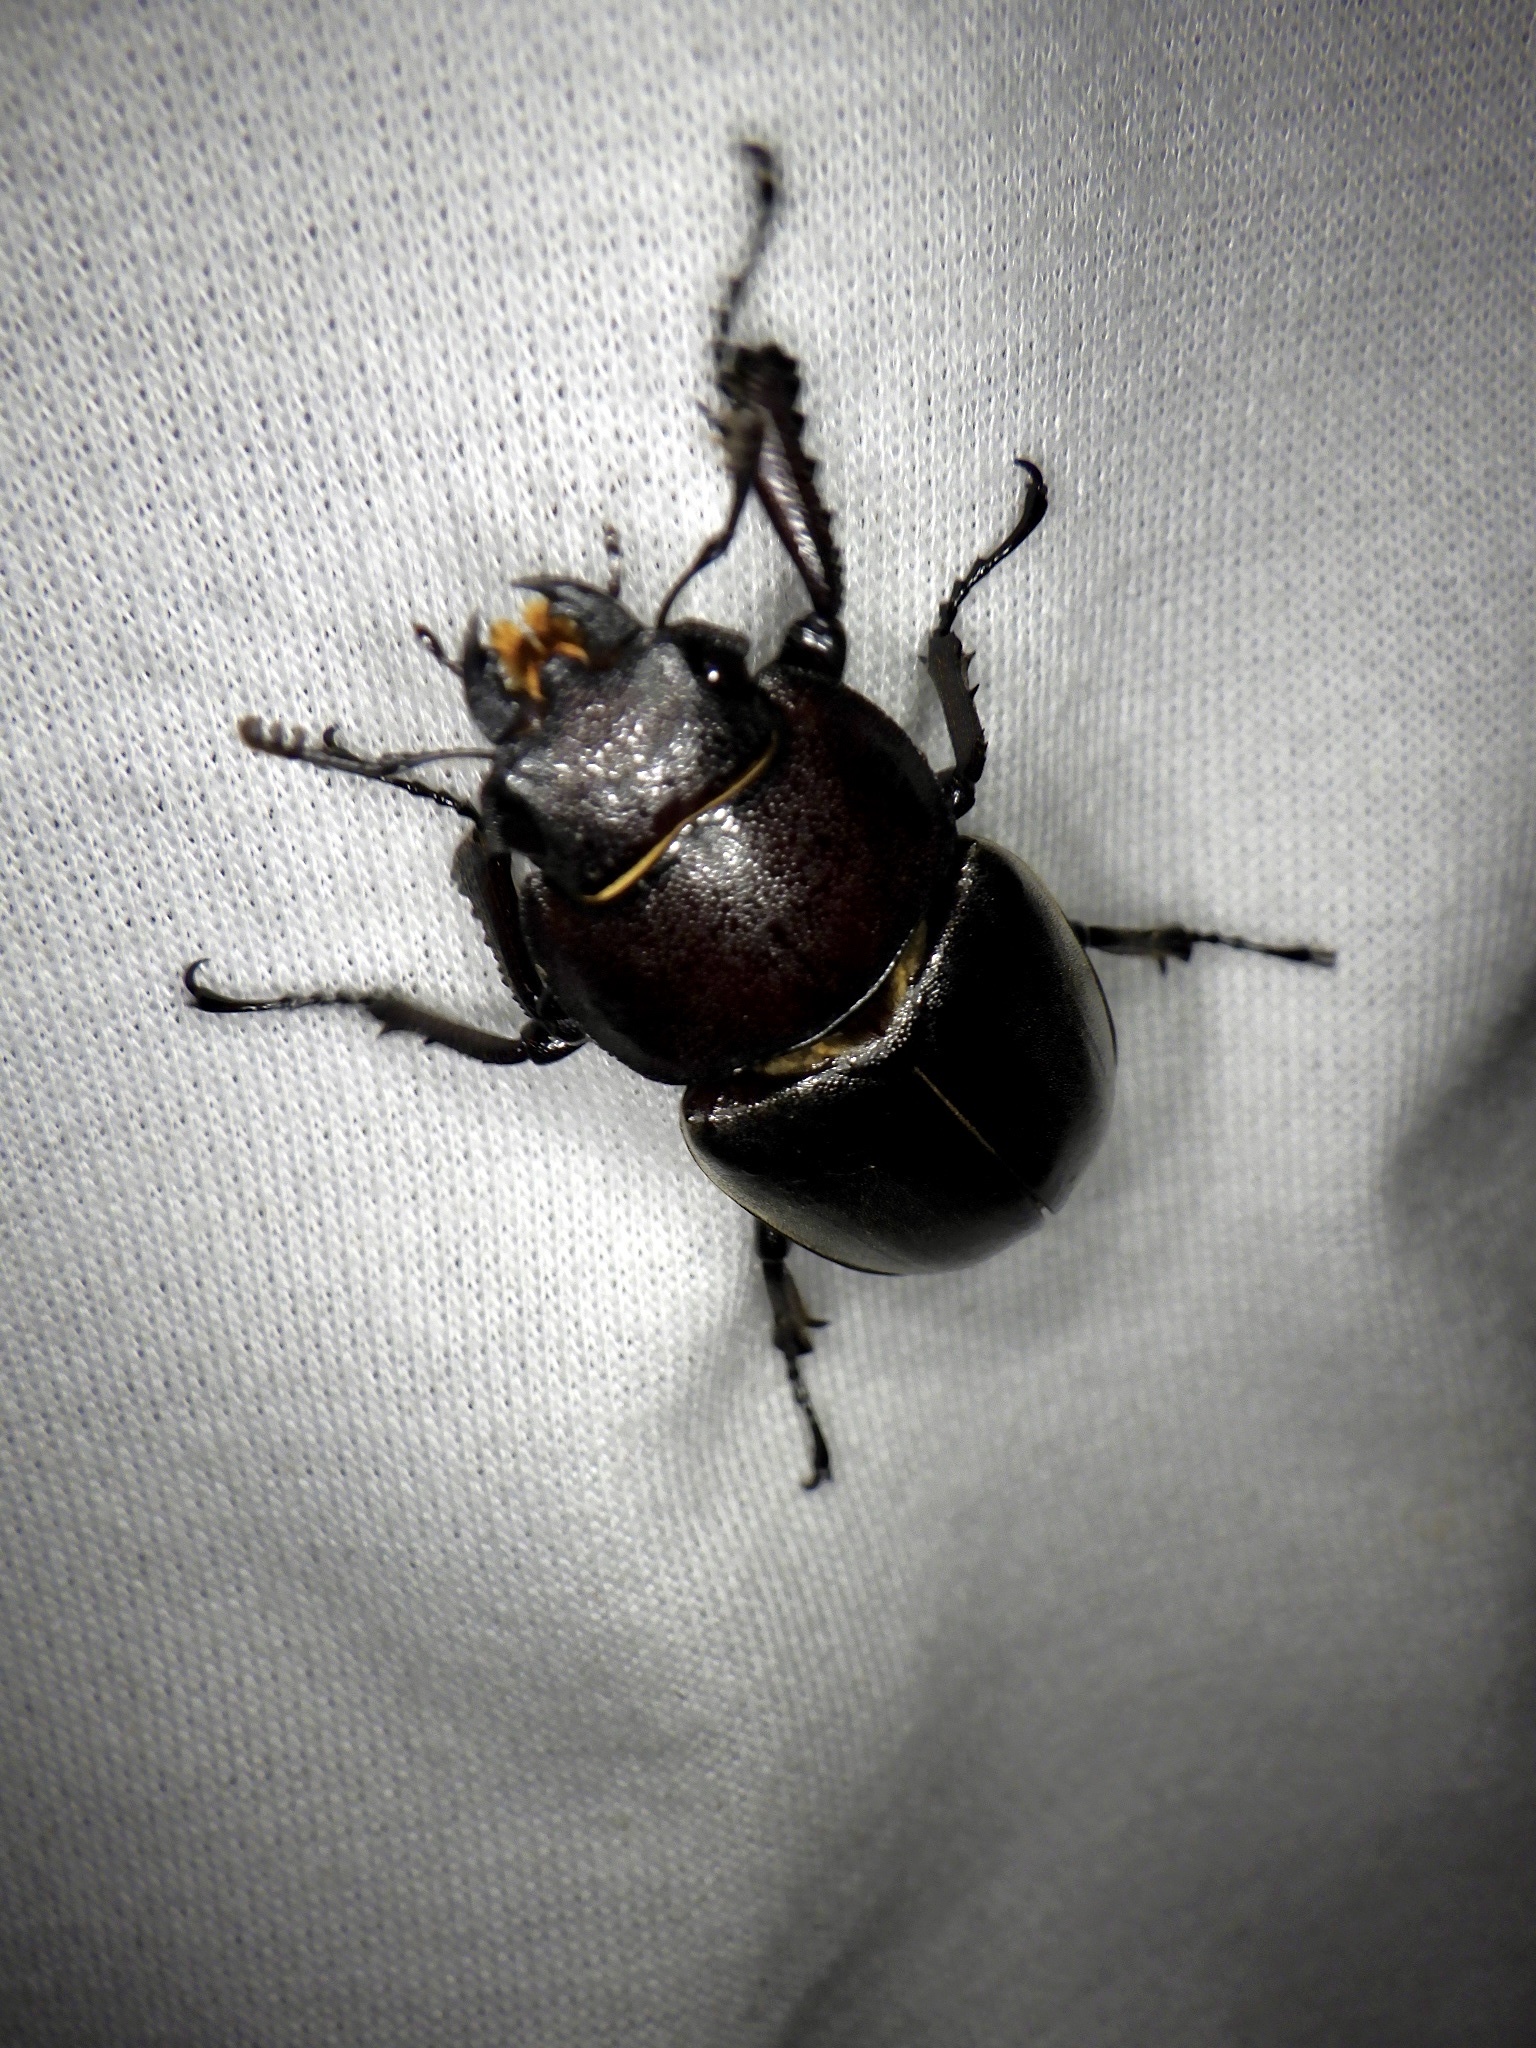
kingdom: Animalia
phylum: Arthropoda
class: Insecta
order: Coleoptera
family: Lucanidae
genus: Prosopocoilus
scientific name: Prosopocoilus inclinatus
